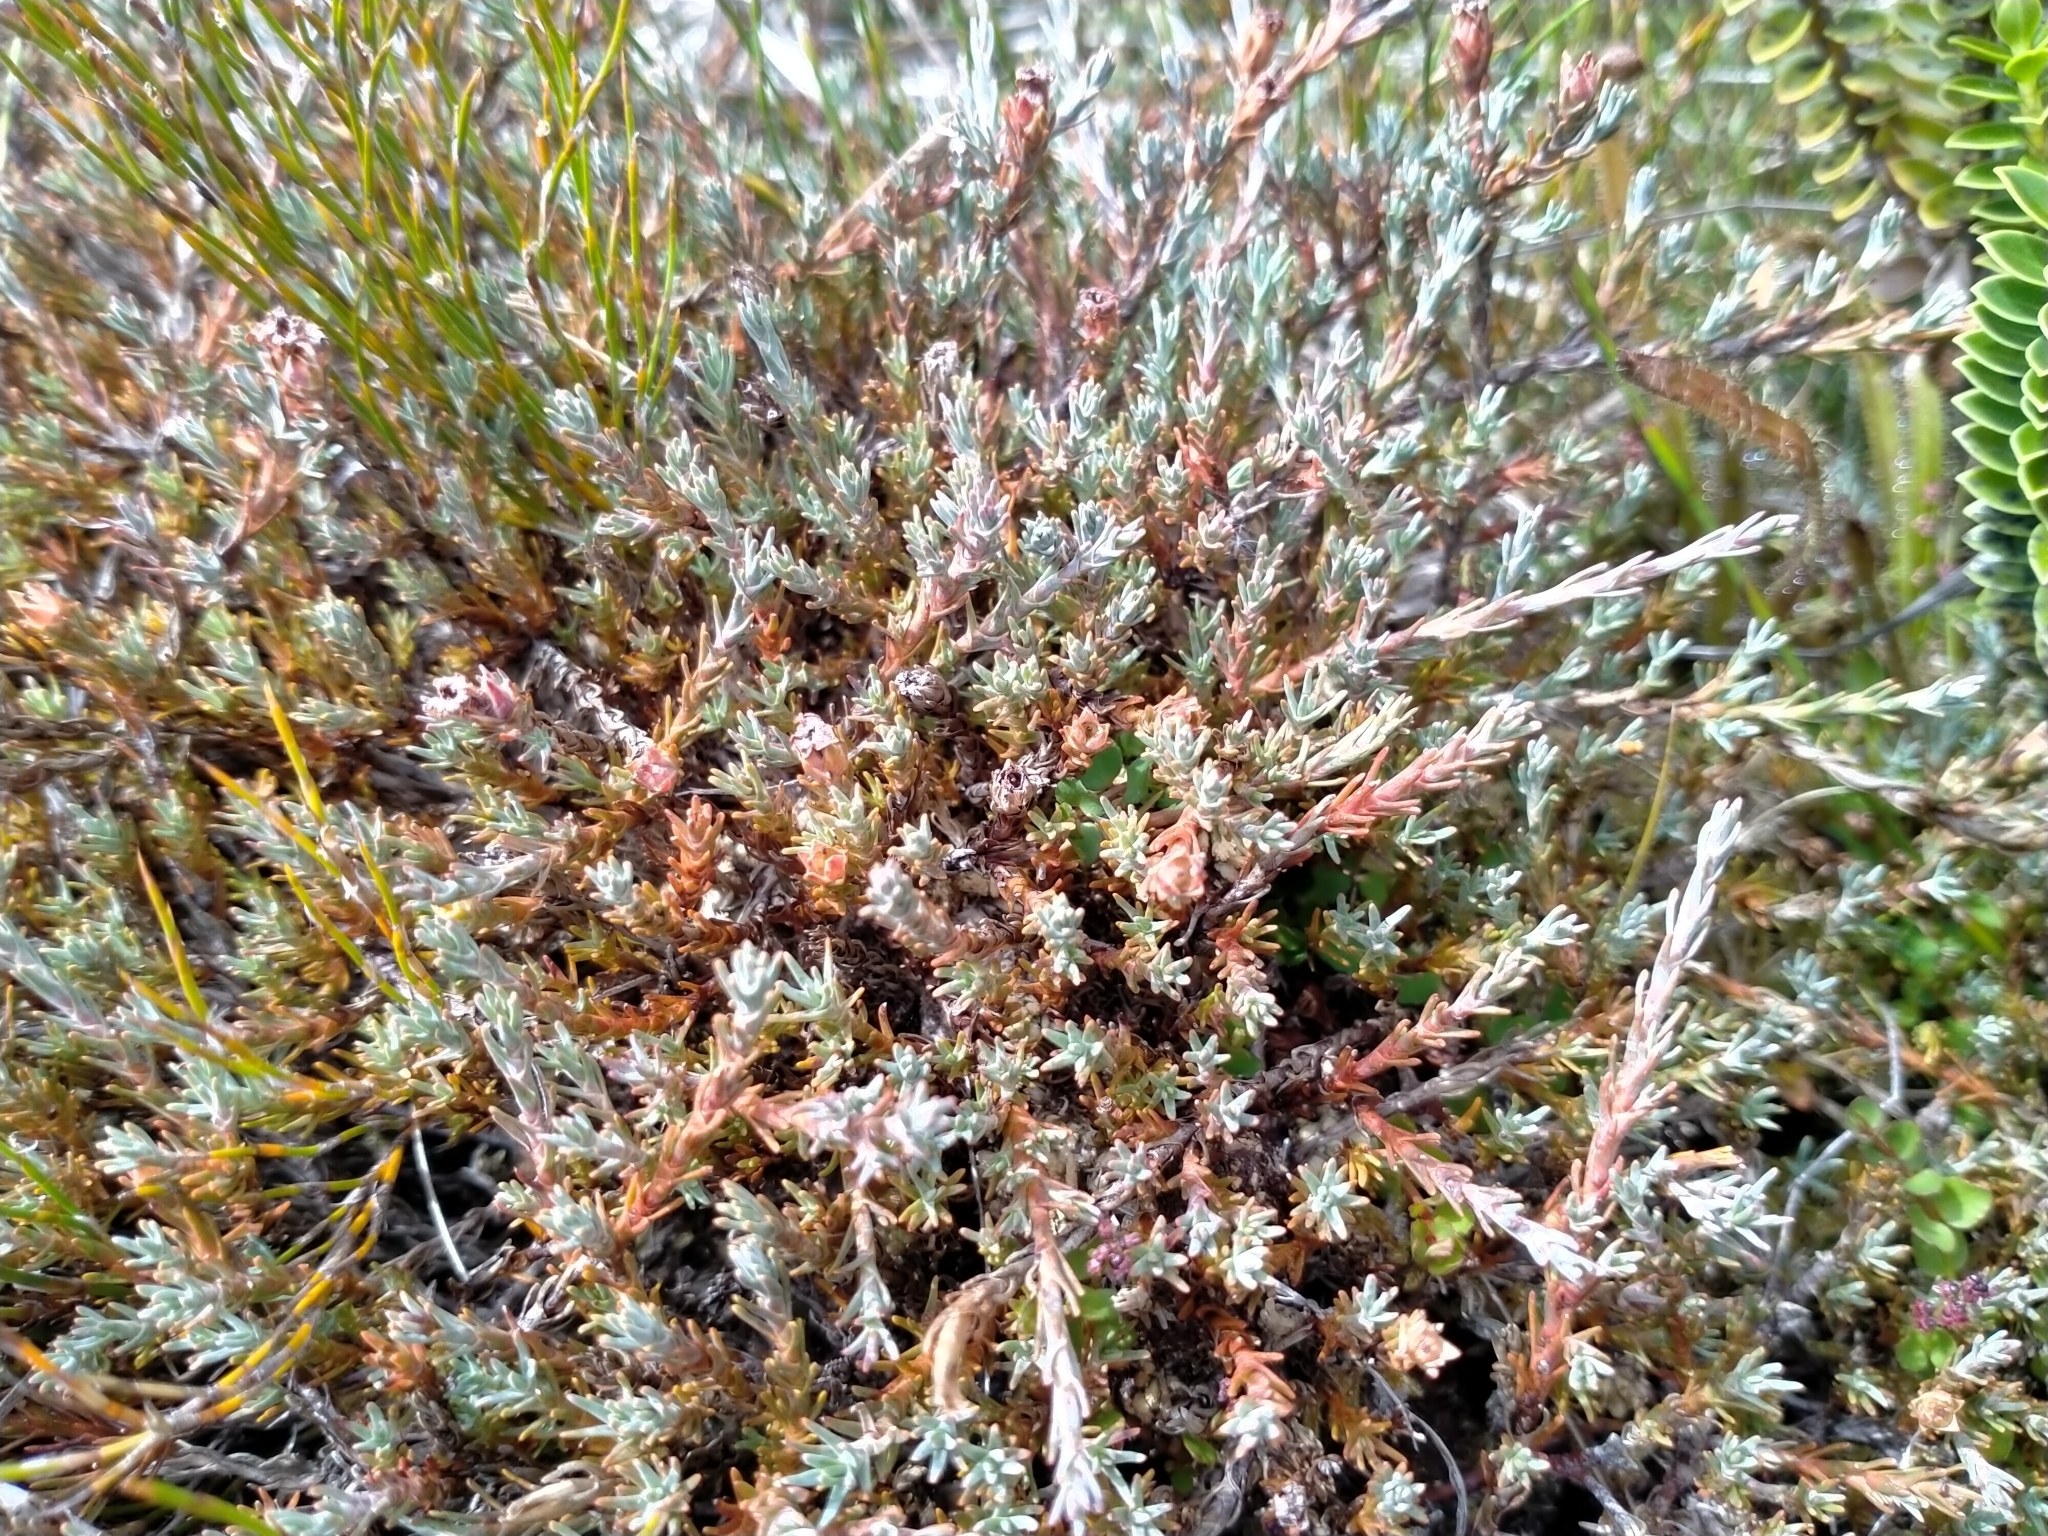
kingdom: Plantae
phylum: Tracheophyta
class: Magnoliopsida
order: Ericales
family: Ericaceae
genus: Dracophyllum
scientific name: Dracophyllum prostratum
